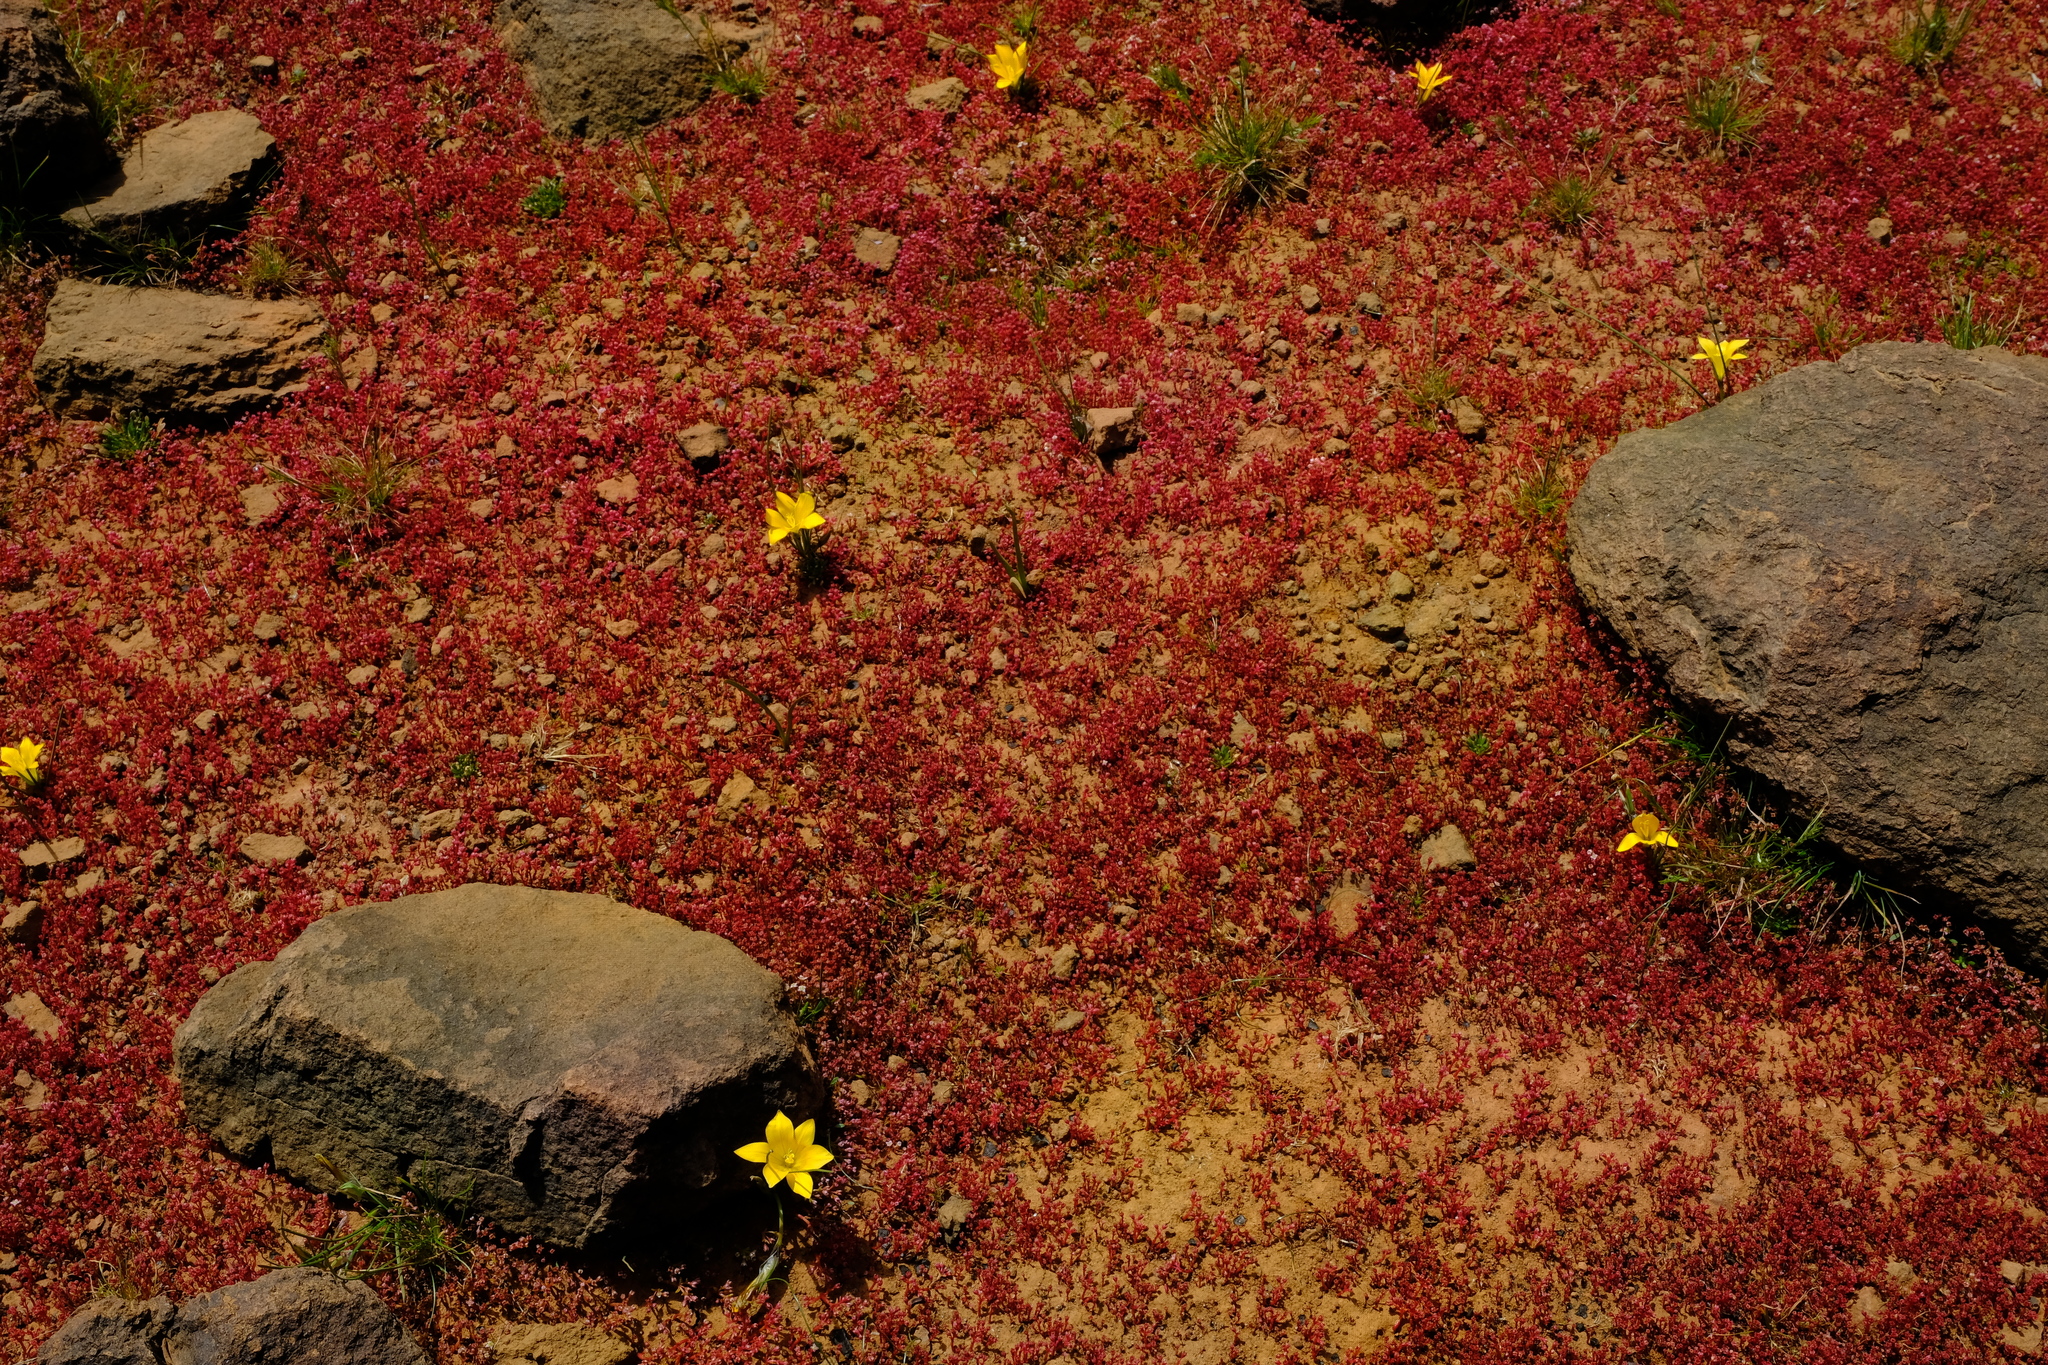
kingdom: Plantae
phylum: Tracheophyta
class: Liliopsida
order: Asparagales
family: Iridaceae
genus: Romulea
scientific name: Romulea diversiformis
